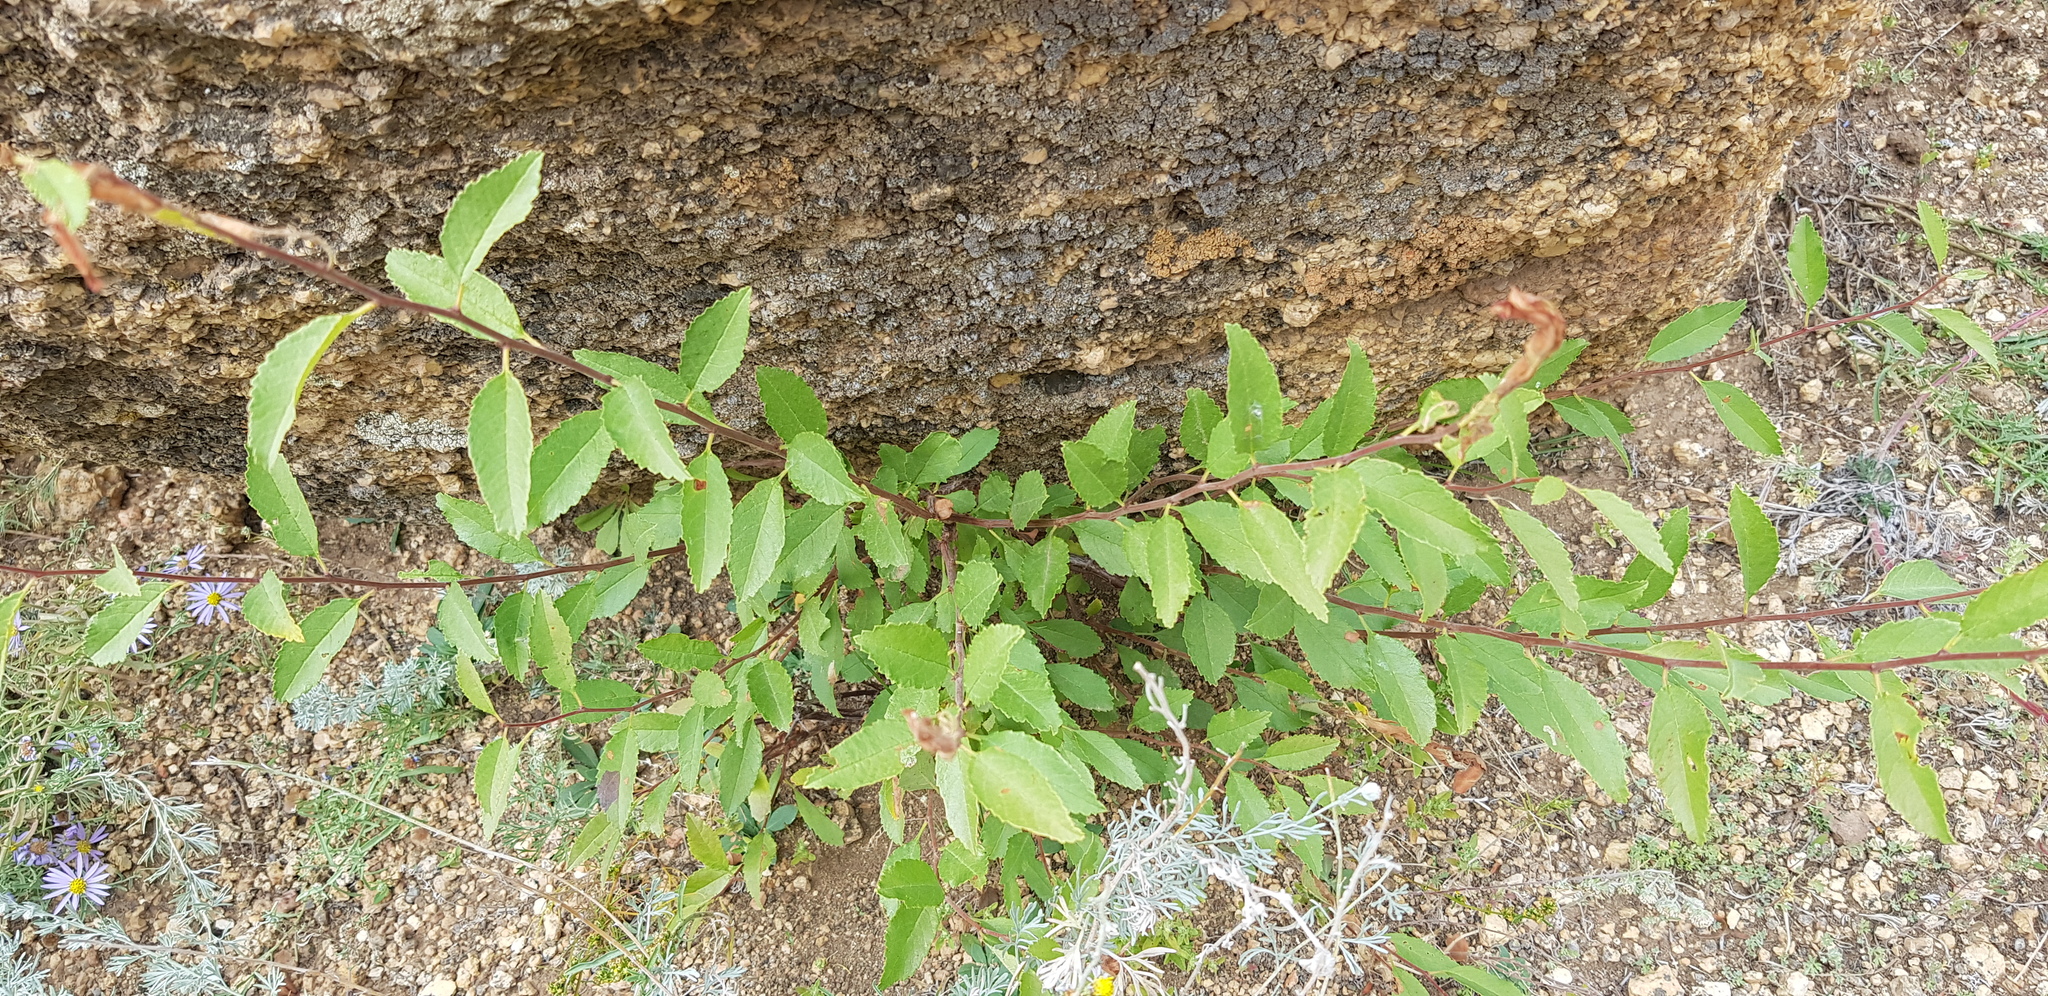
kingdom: Plantae
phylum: Tracheophyta
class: Magnoliopsida
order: Rosales
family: Rosaceae
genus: Prunus
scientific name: Prunus pedunculata
